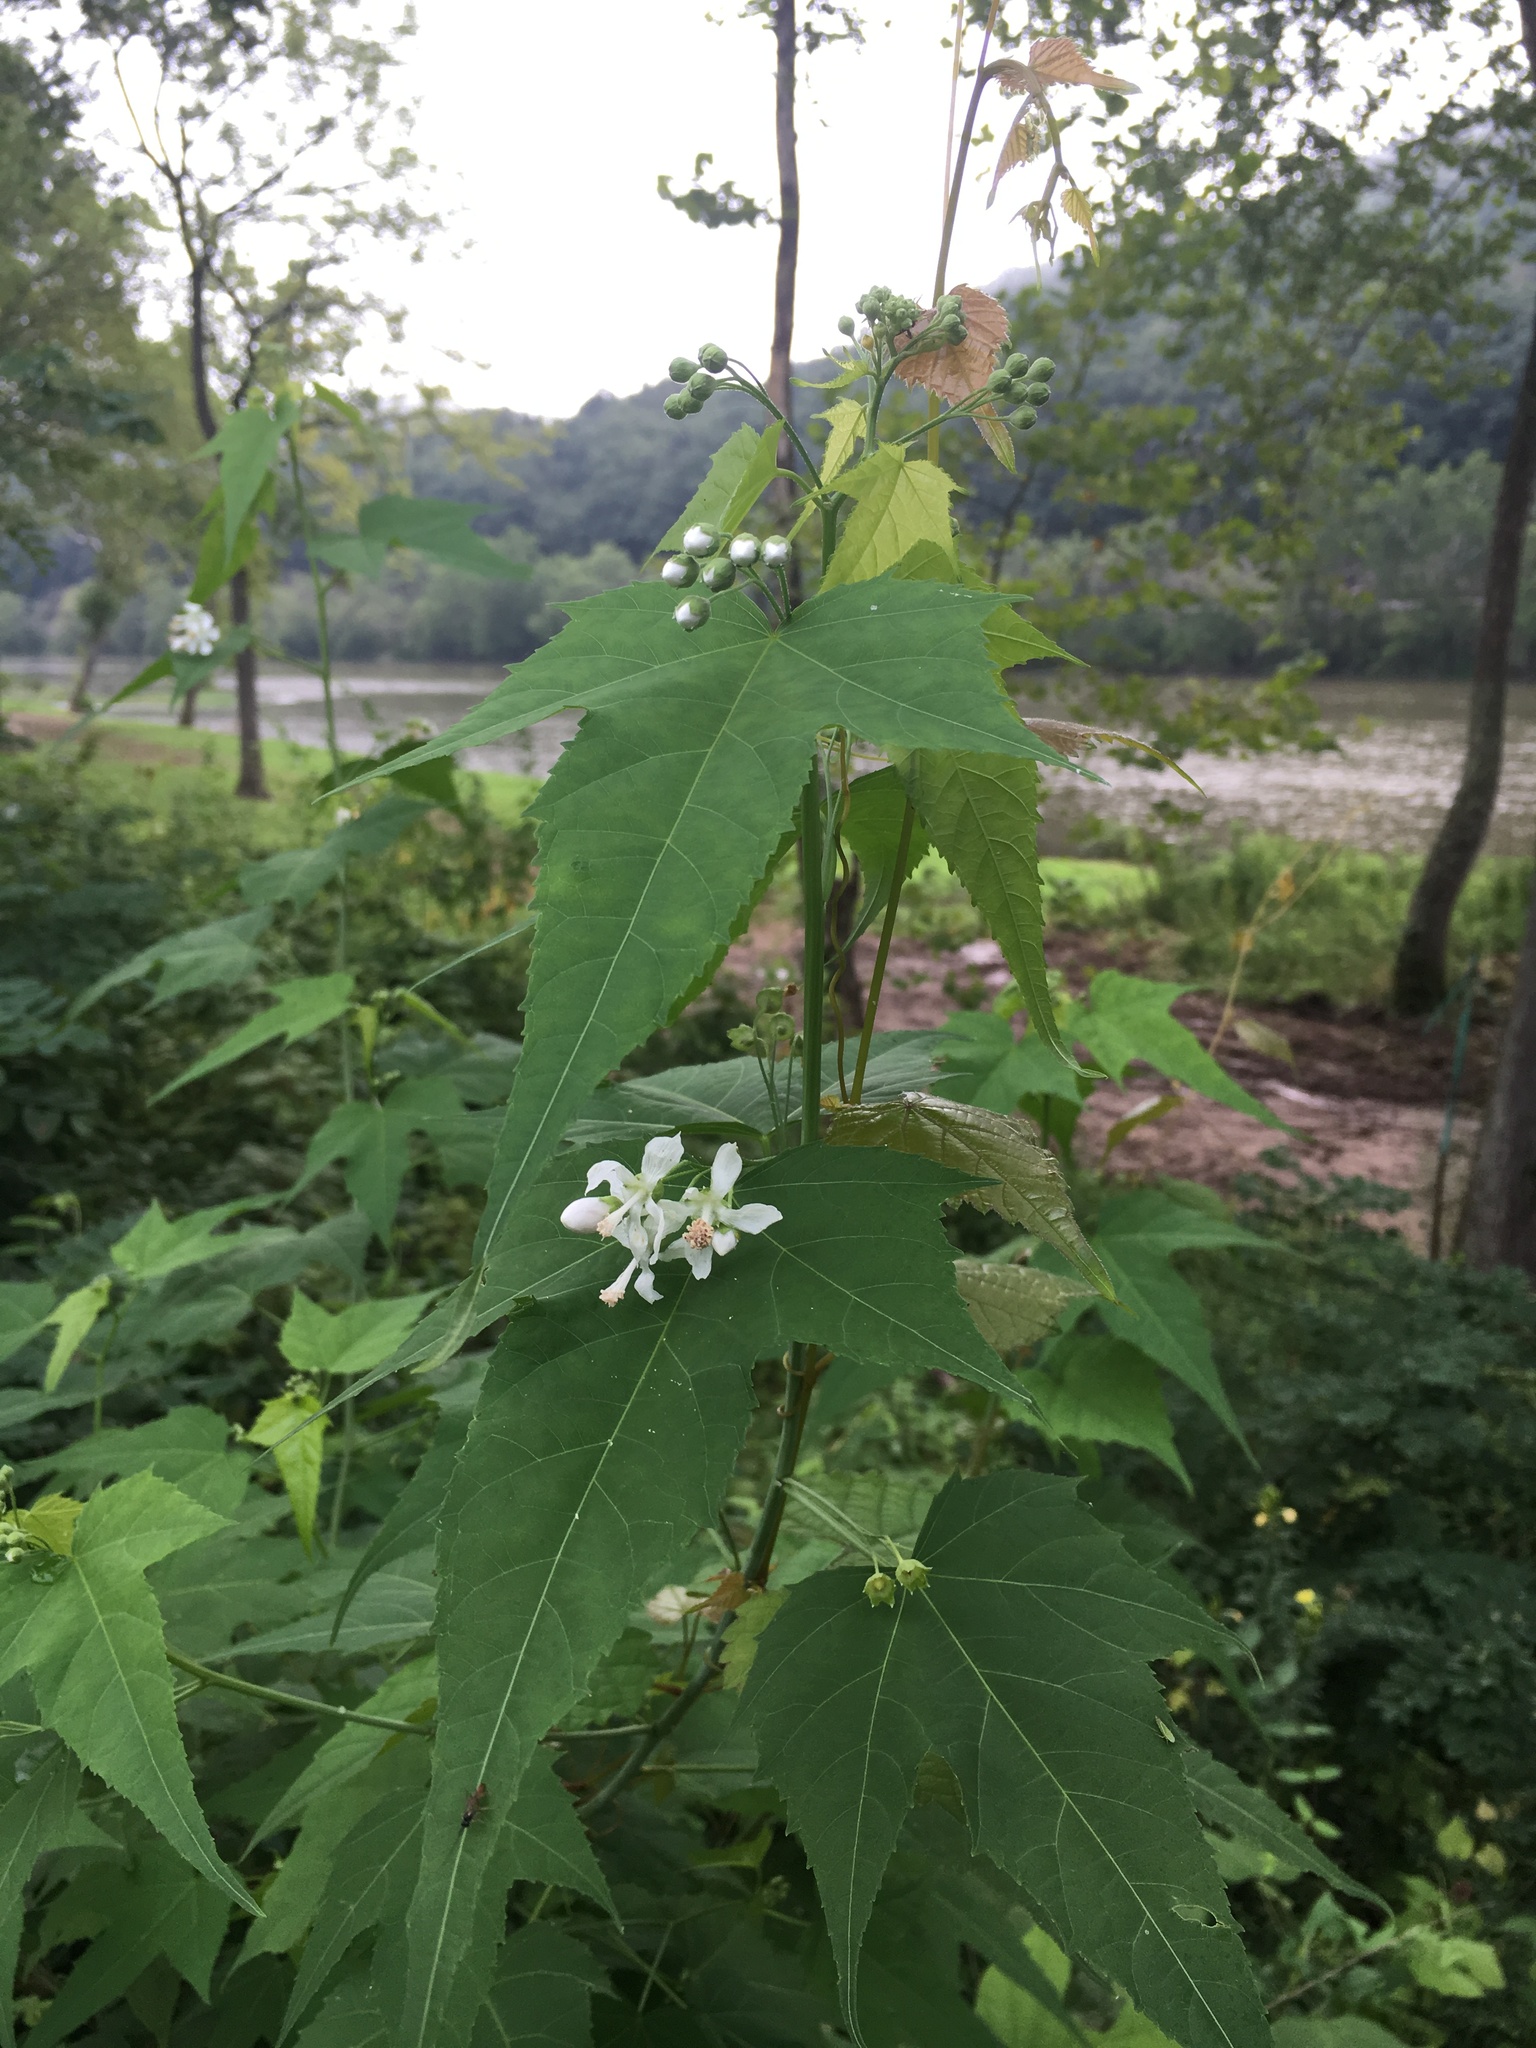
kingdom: Plantae
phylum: Tracheophyta
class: Magnoliopsida
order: Malvales
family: Malvaceae
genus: Ripariosida
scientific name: Ripariosida hermaphrodita
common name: Virginia fanpetals
